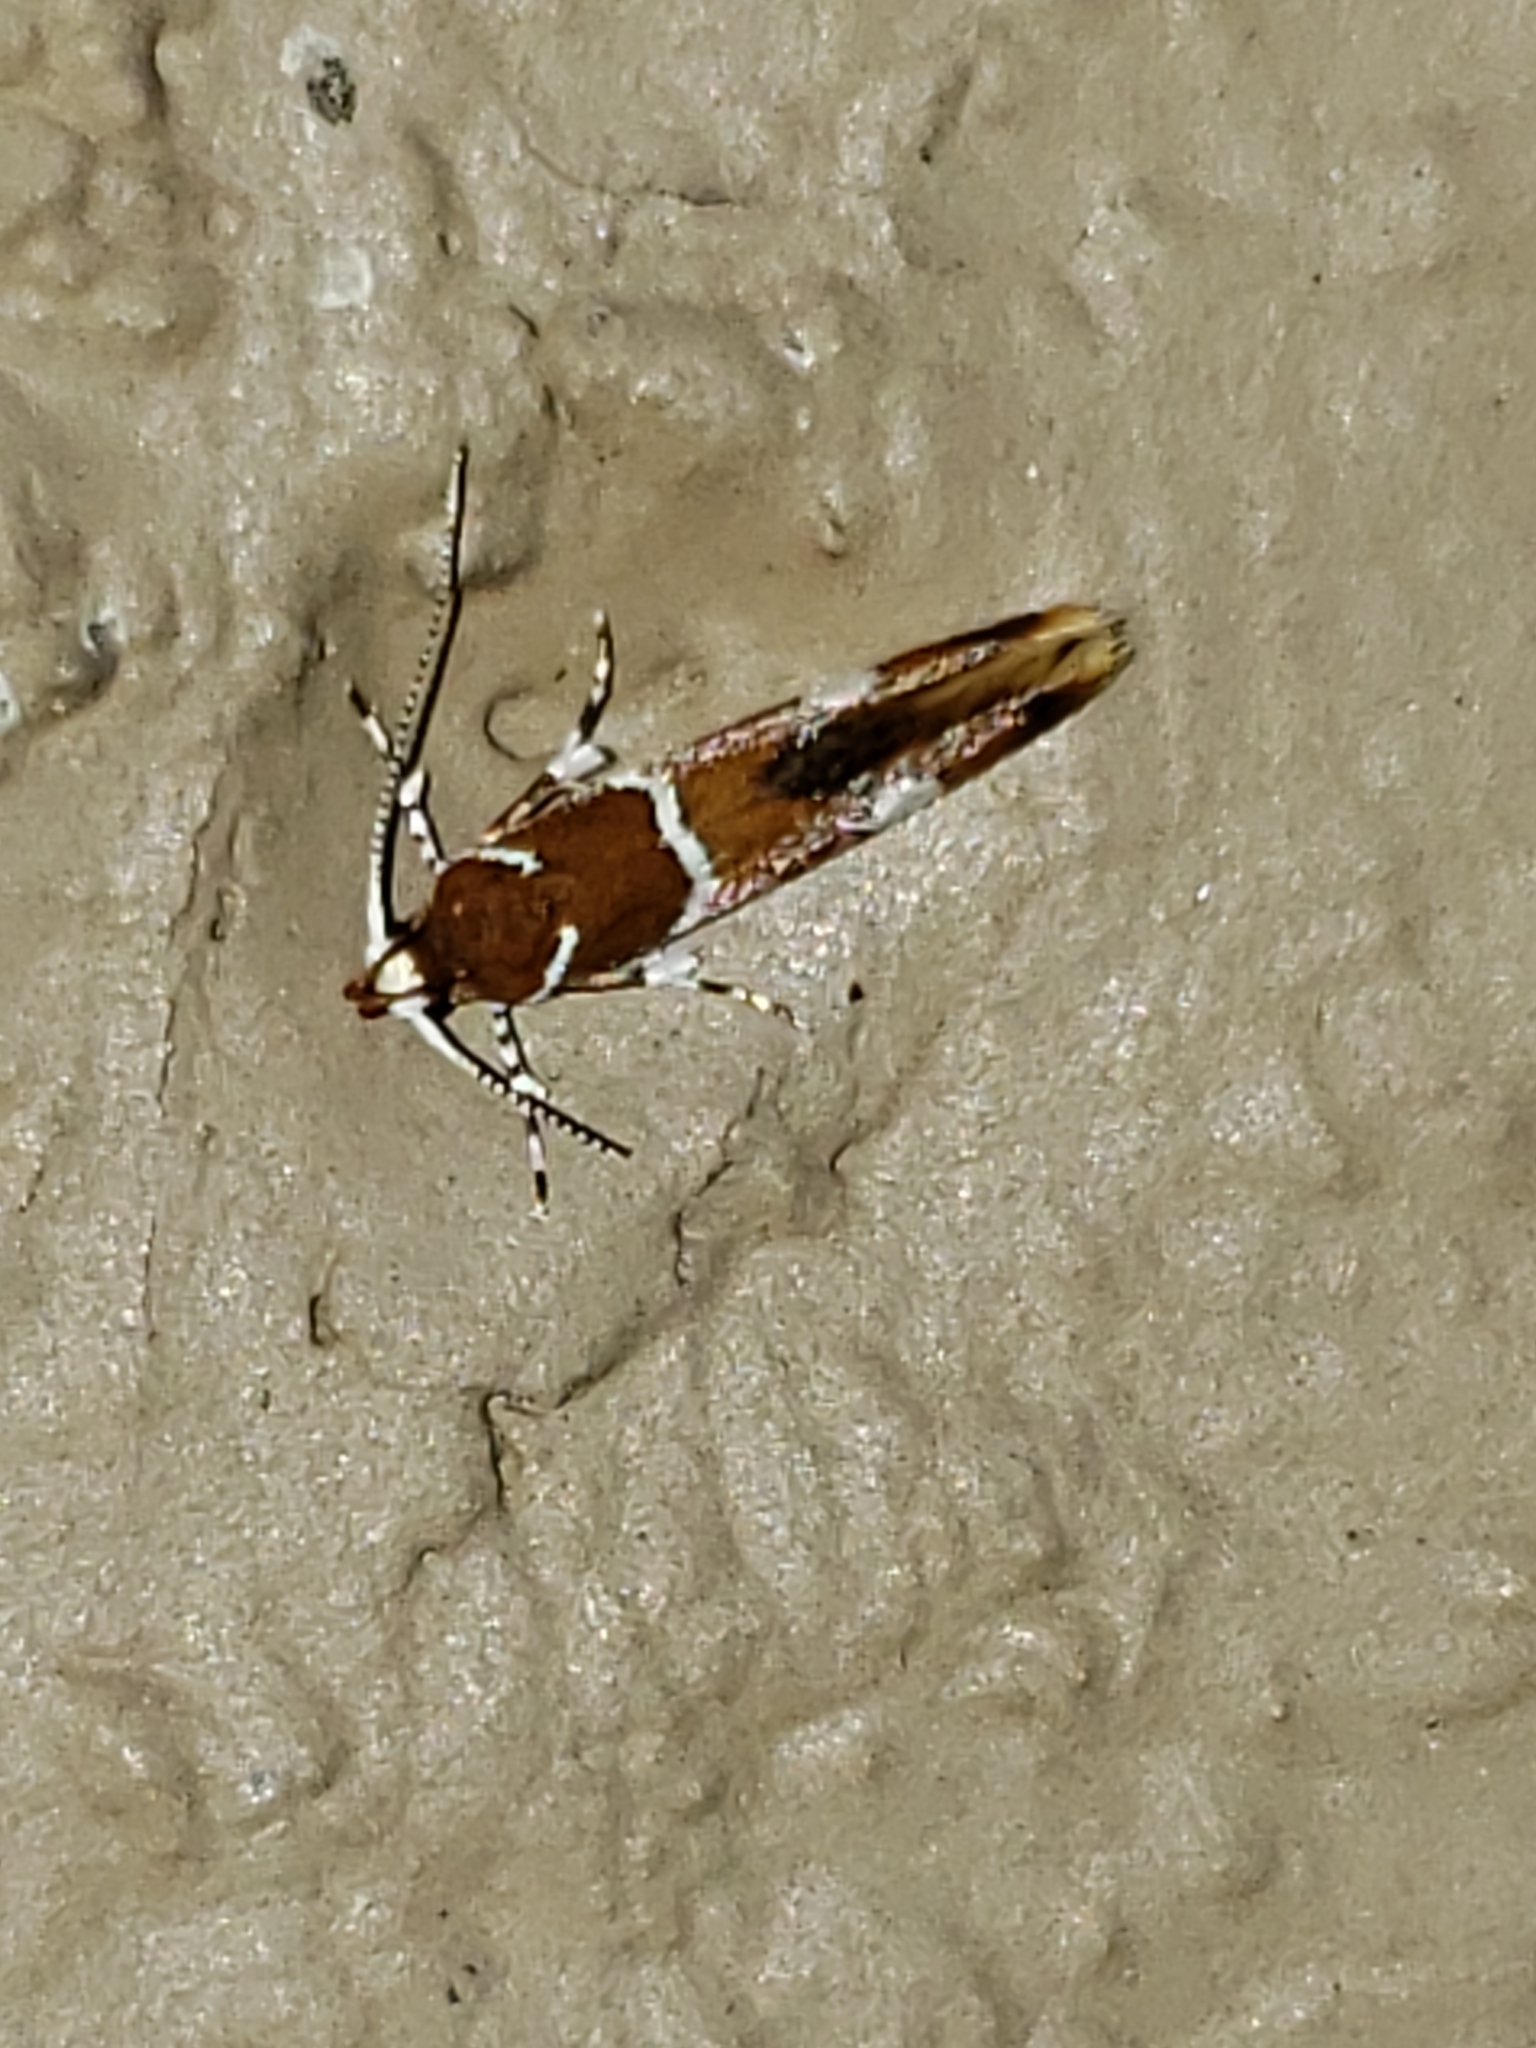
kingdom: Animalia
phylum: Arthropoda
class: Insecta
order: Lepidoptera
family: Oecophoridae
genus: Promalactis
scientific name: Promalactis suzukiella
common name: Moth
